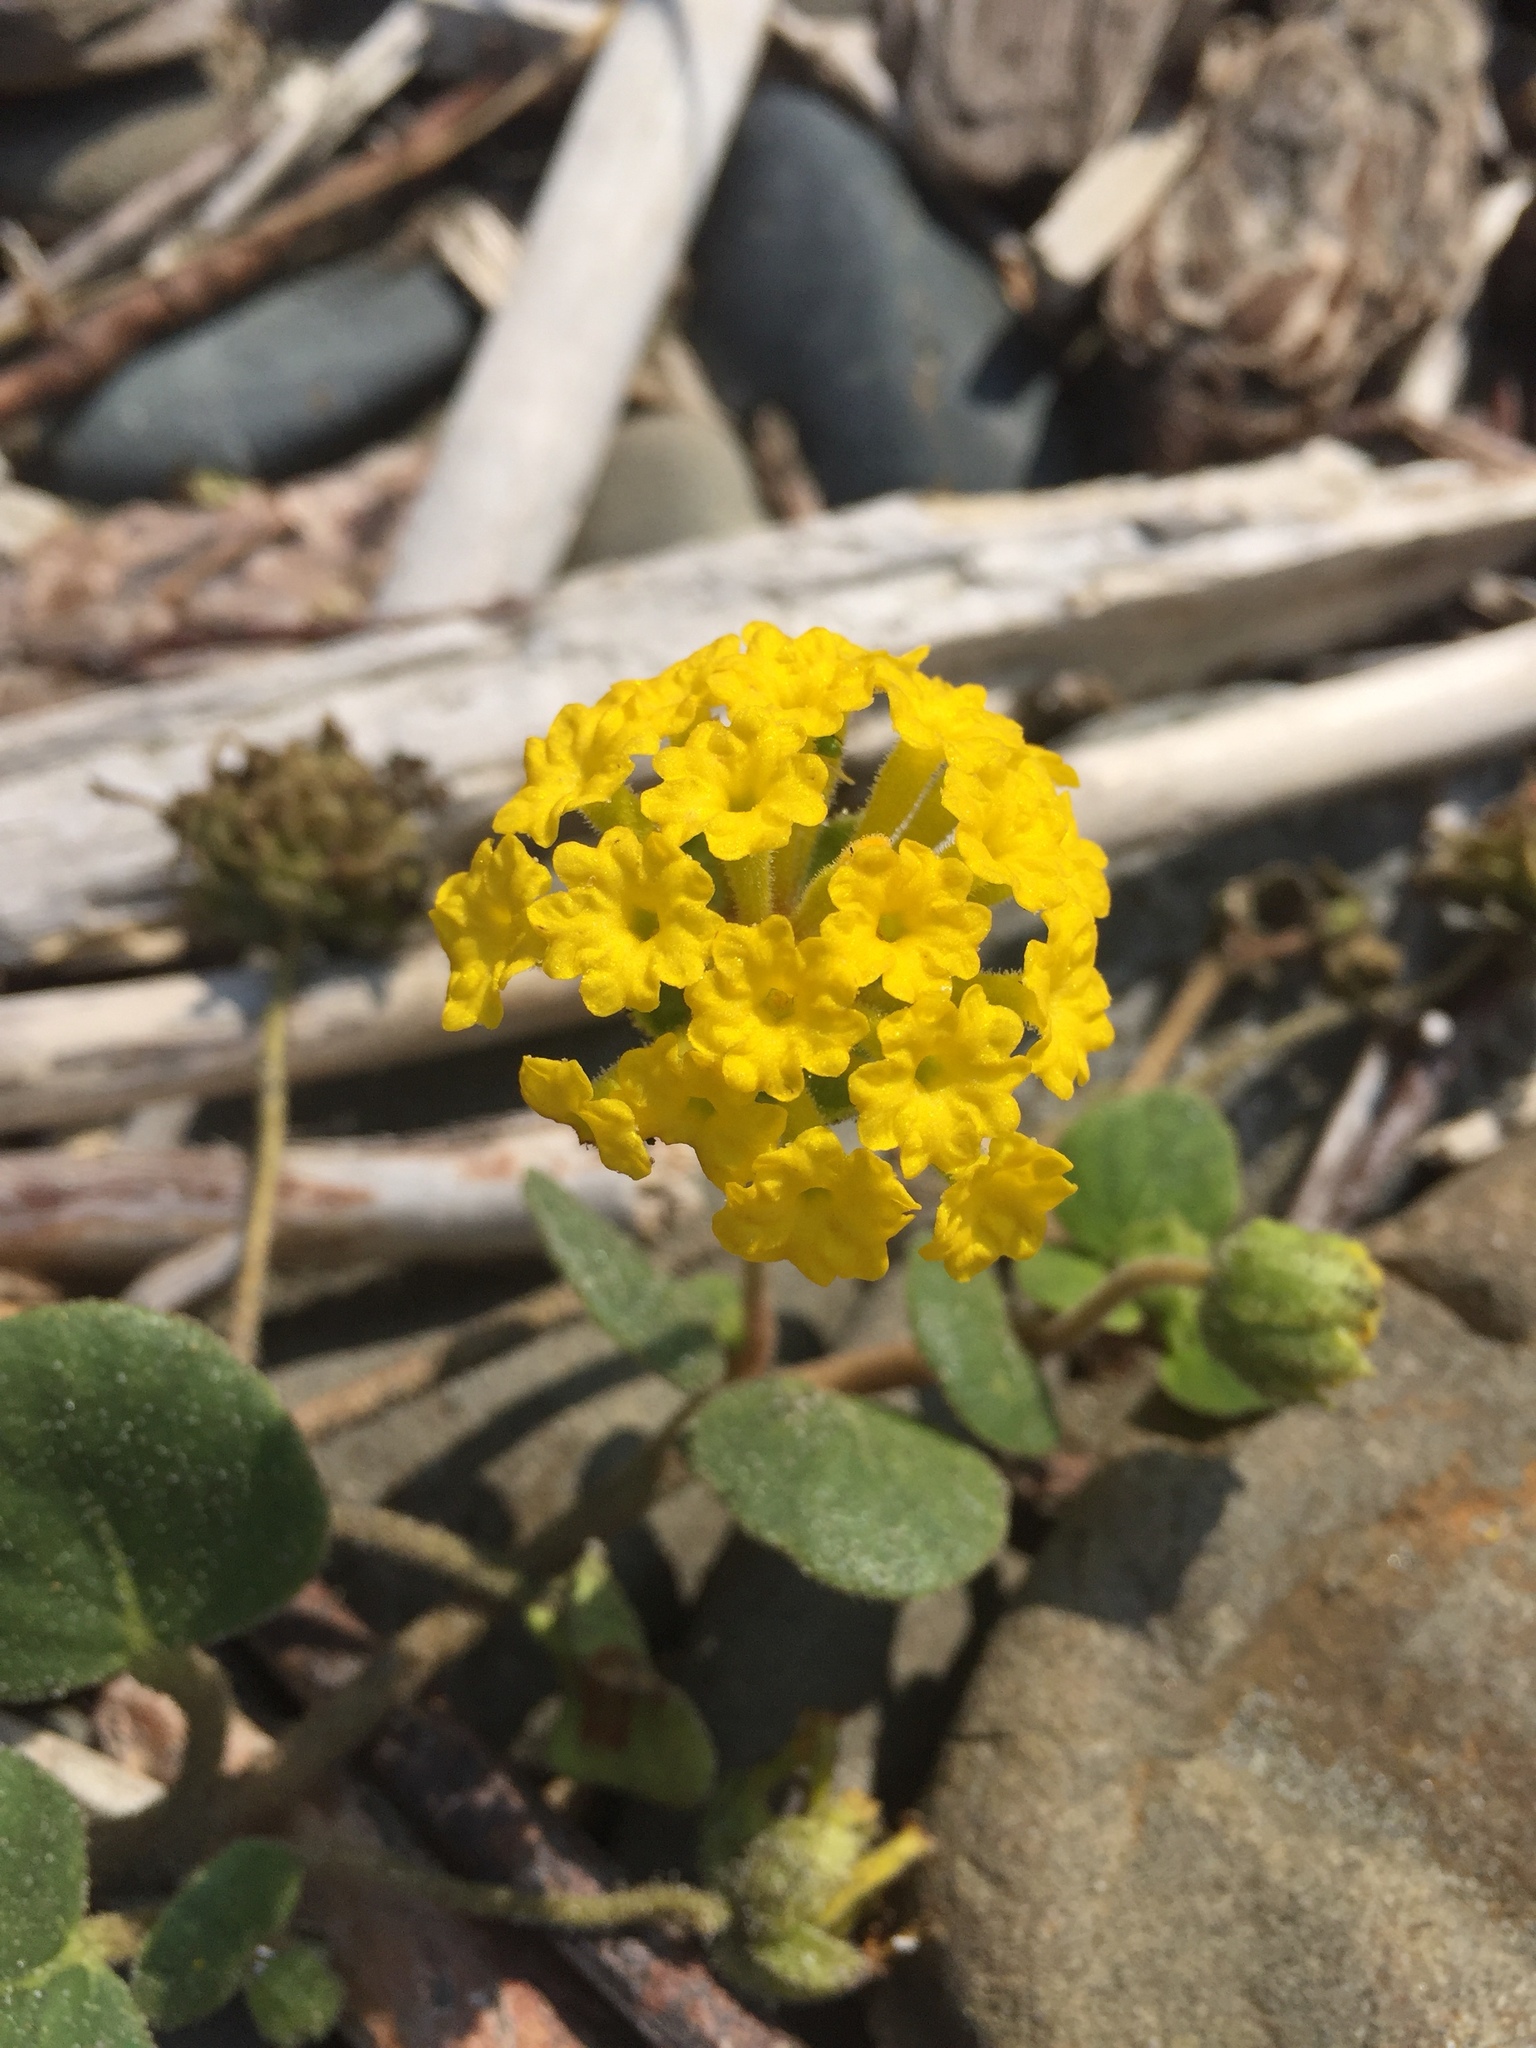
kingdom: Plantae
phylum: Tracheophyta
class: Magnoliopsida
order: Caryophyllales
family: Nyctaginaceae
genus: Abronia
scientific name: Abronia latifolia
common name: Yellow sand-verbena
